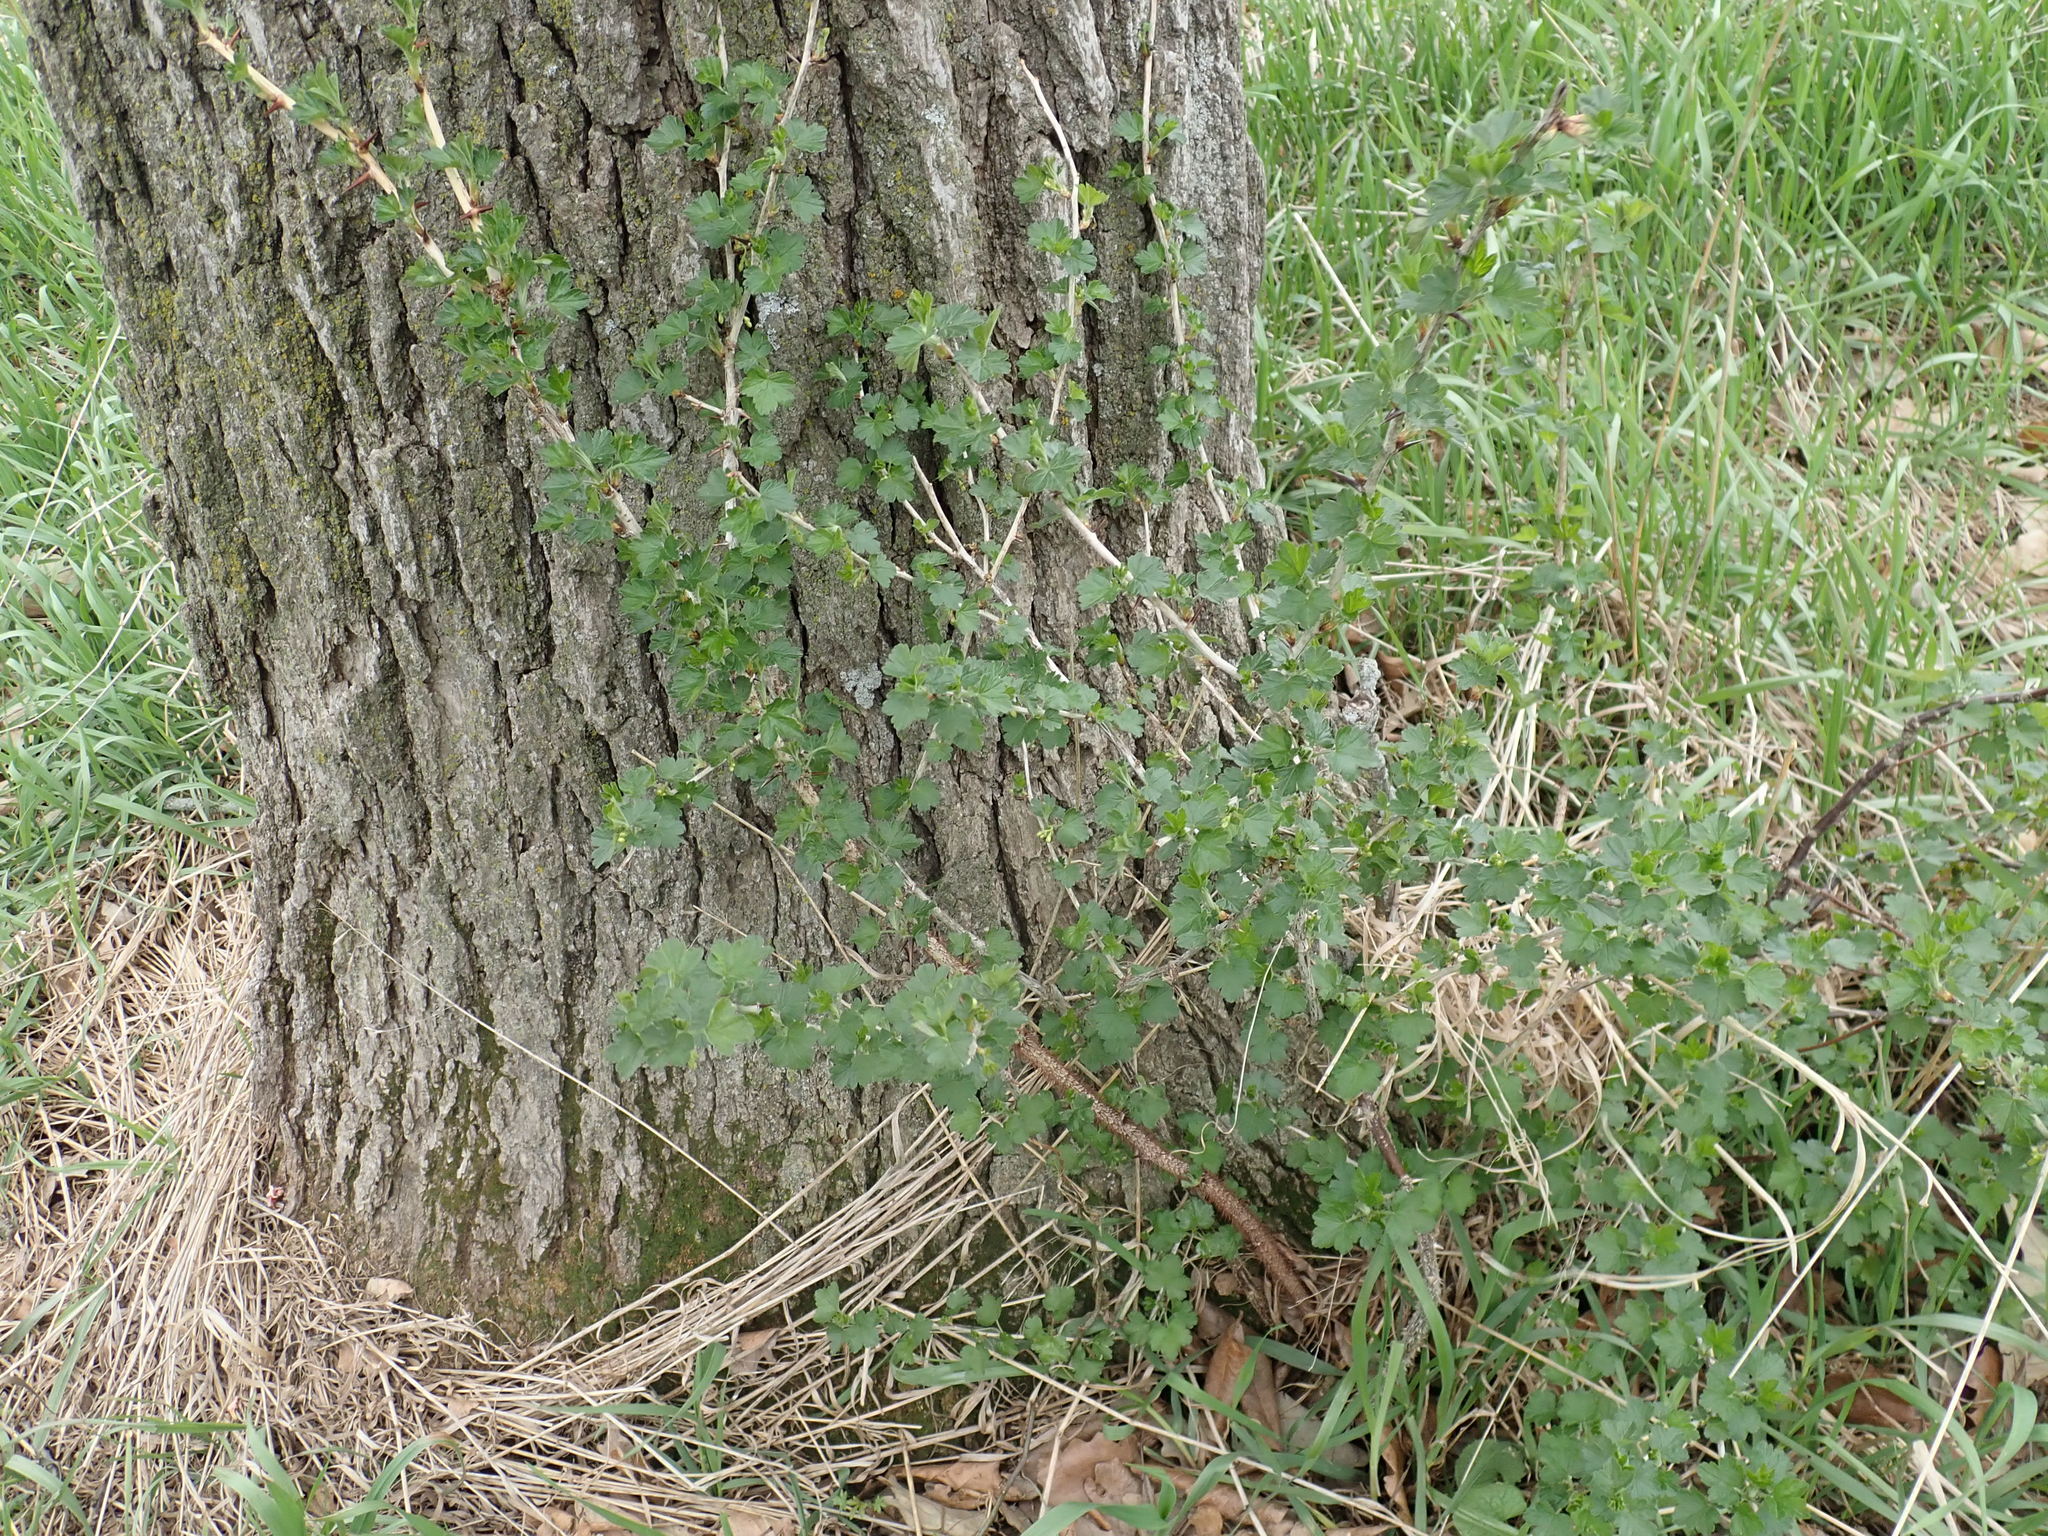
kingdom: Plantae
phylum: Tracheophyta
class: Magnoliopsida
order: Saxifragales
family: Grossulariaceae
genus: Ribes
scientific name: Ribes missouriense
